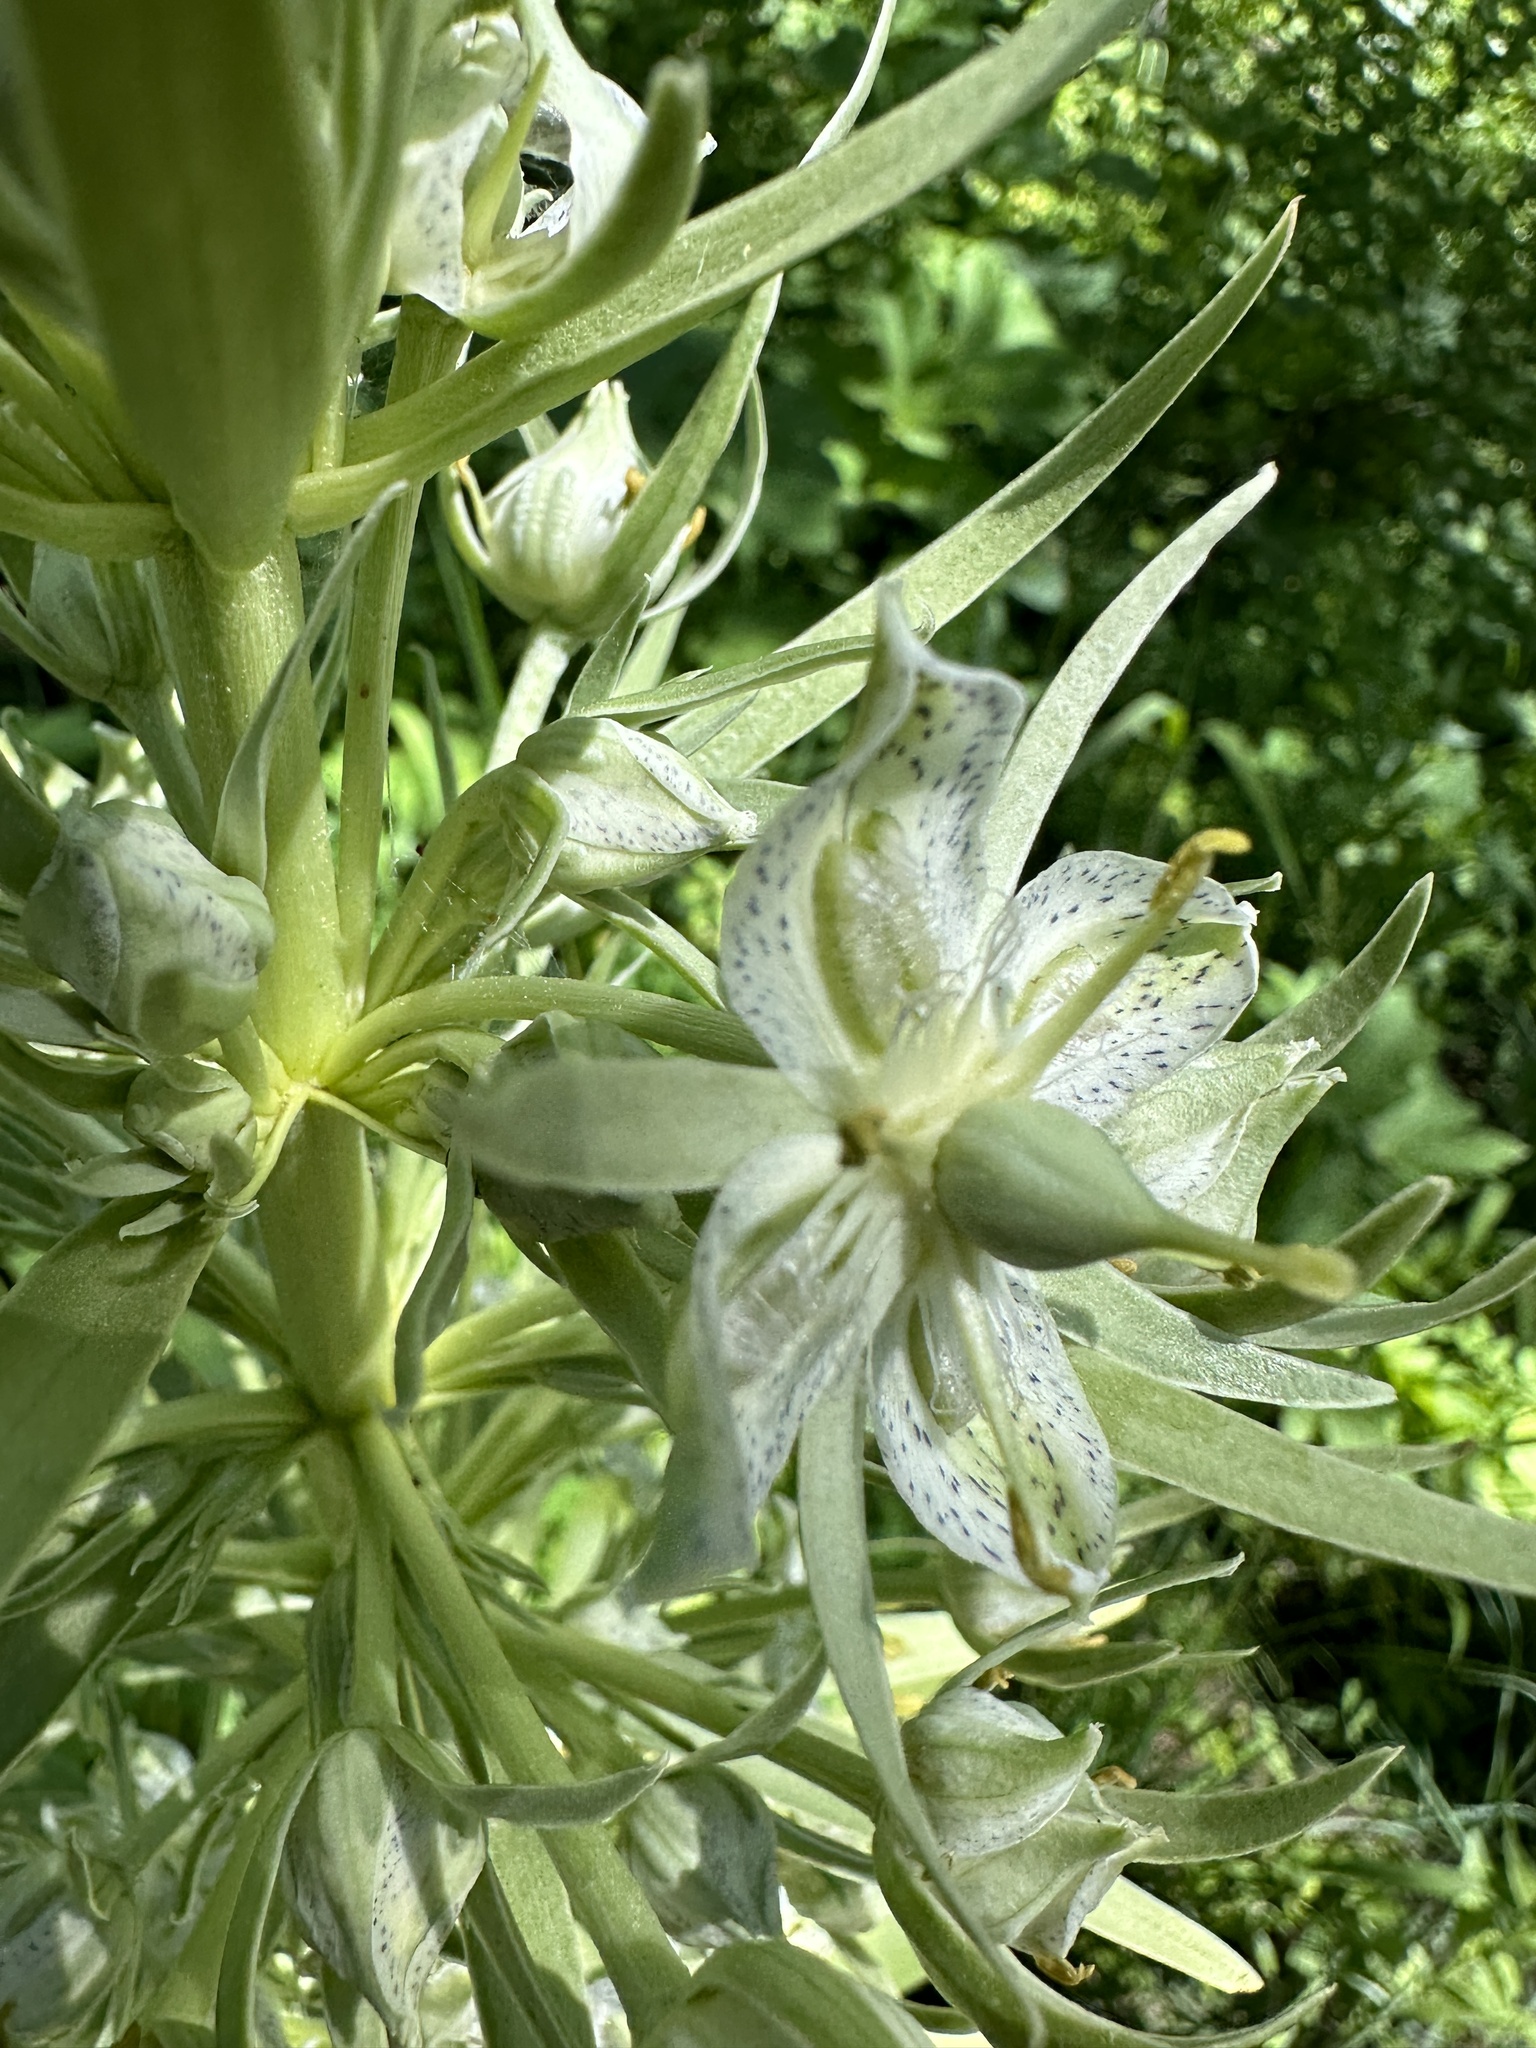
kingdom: Plantae
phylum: Tracheophyta
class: Magnoliopsida
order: Gentianales
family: Gentianaceae
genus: Frasera
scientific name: Frasera speciosa
